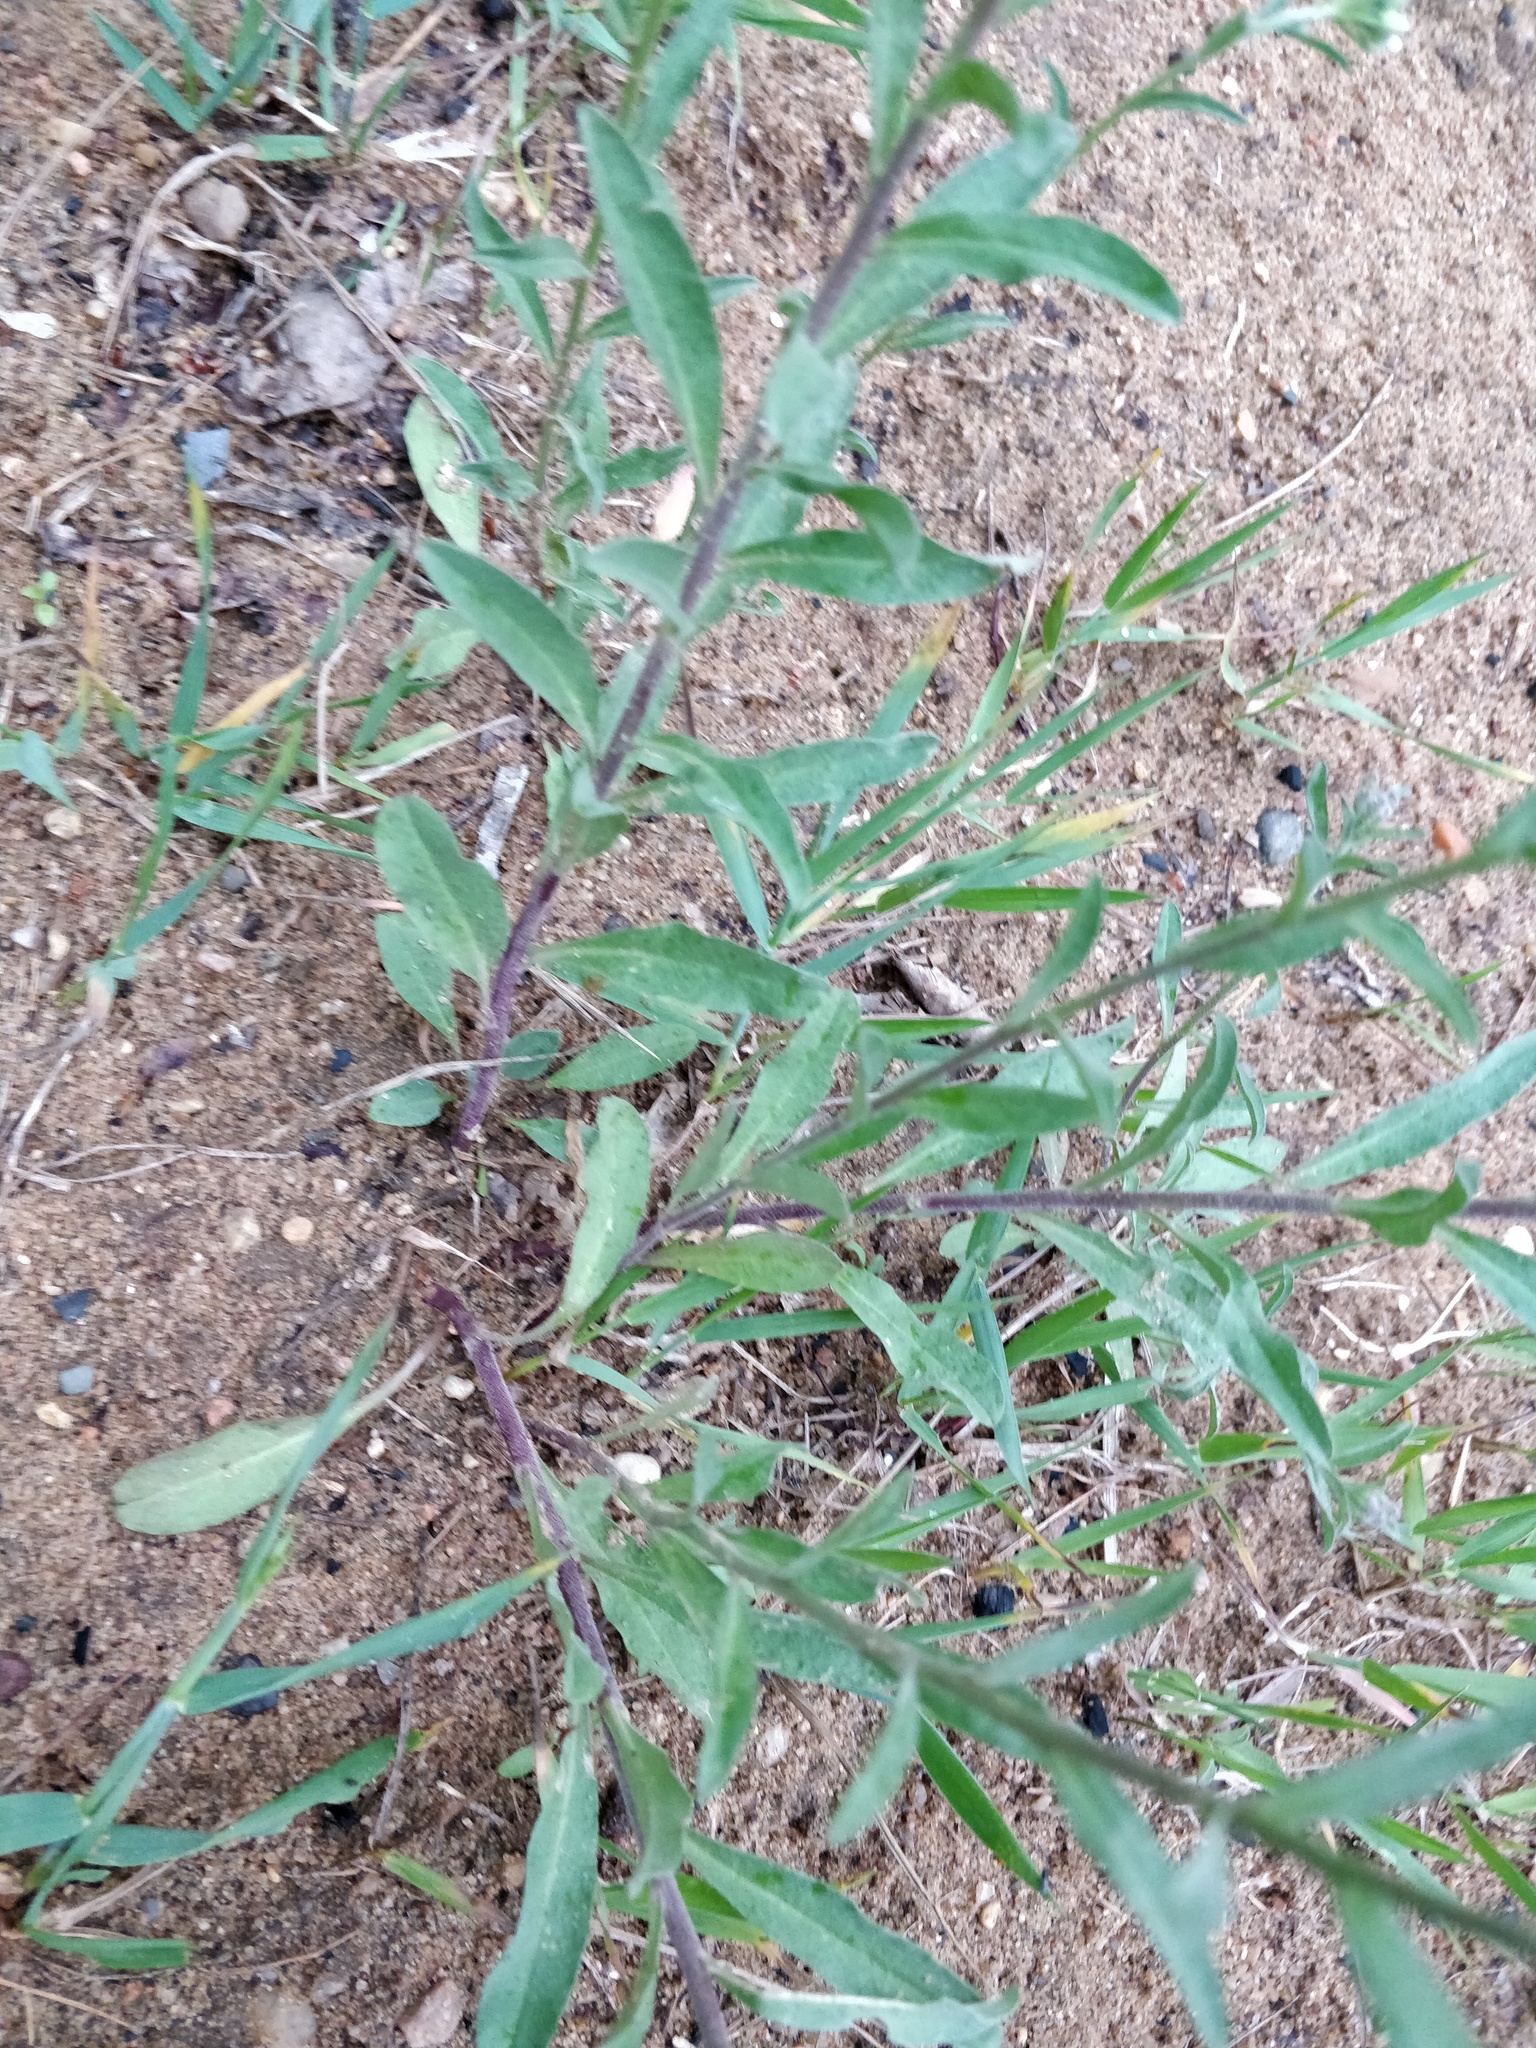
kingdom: Plantae
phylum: Tracheophyta
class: Magnoliopsida
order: Brassicales
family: Brassicaceae
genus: Berteroa
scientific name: Berteroa incana
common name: Hoary alison
